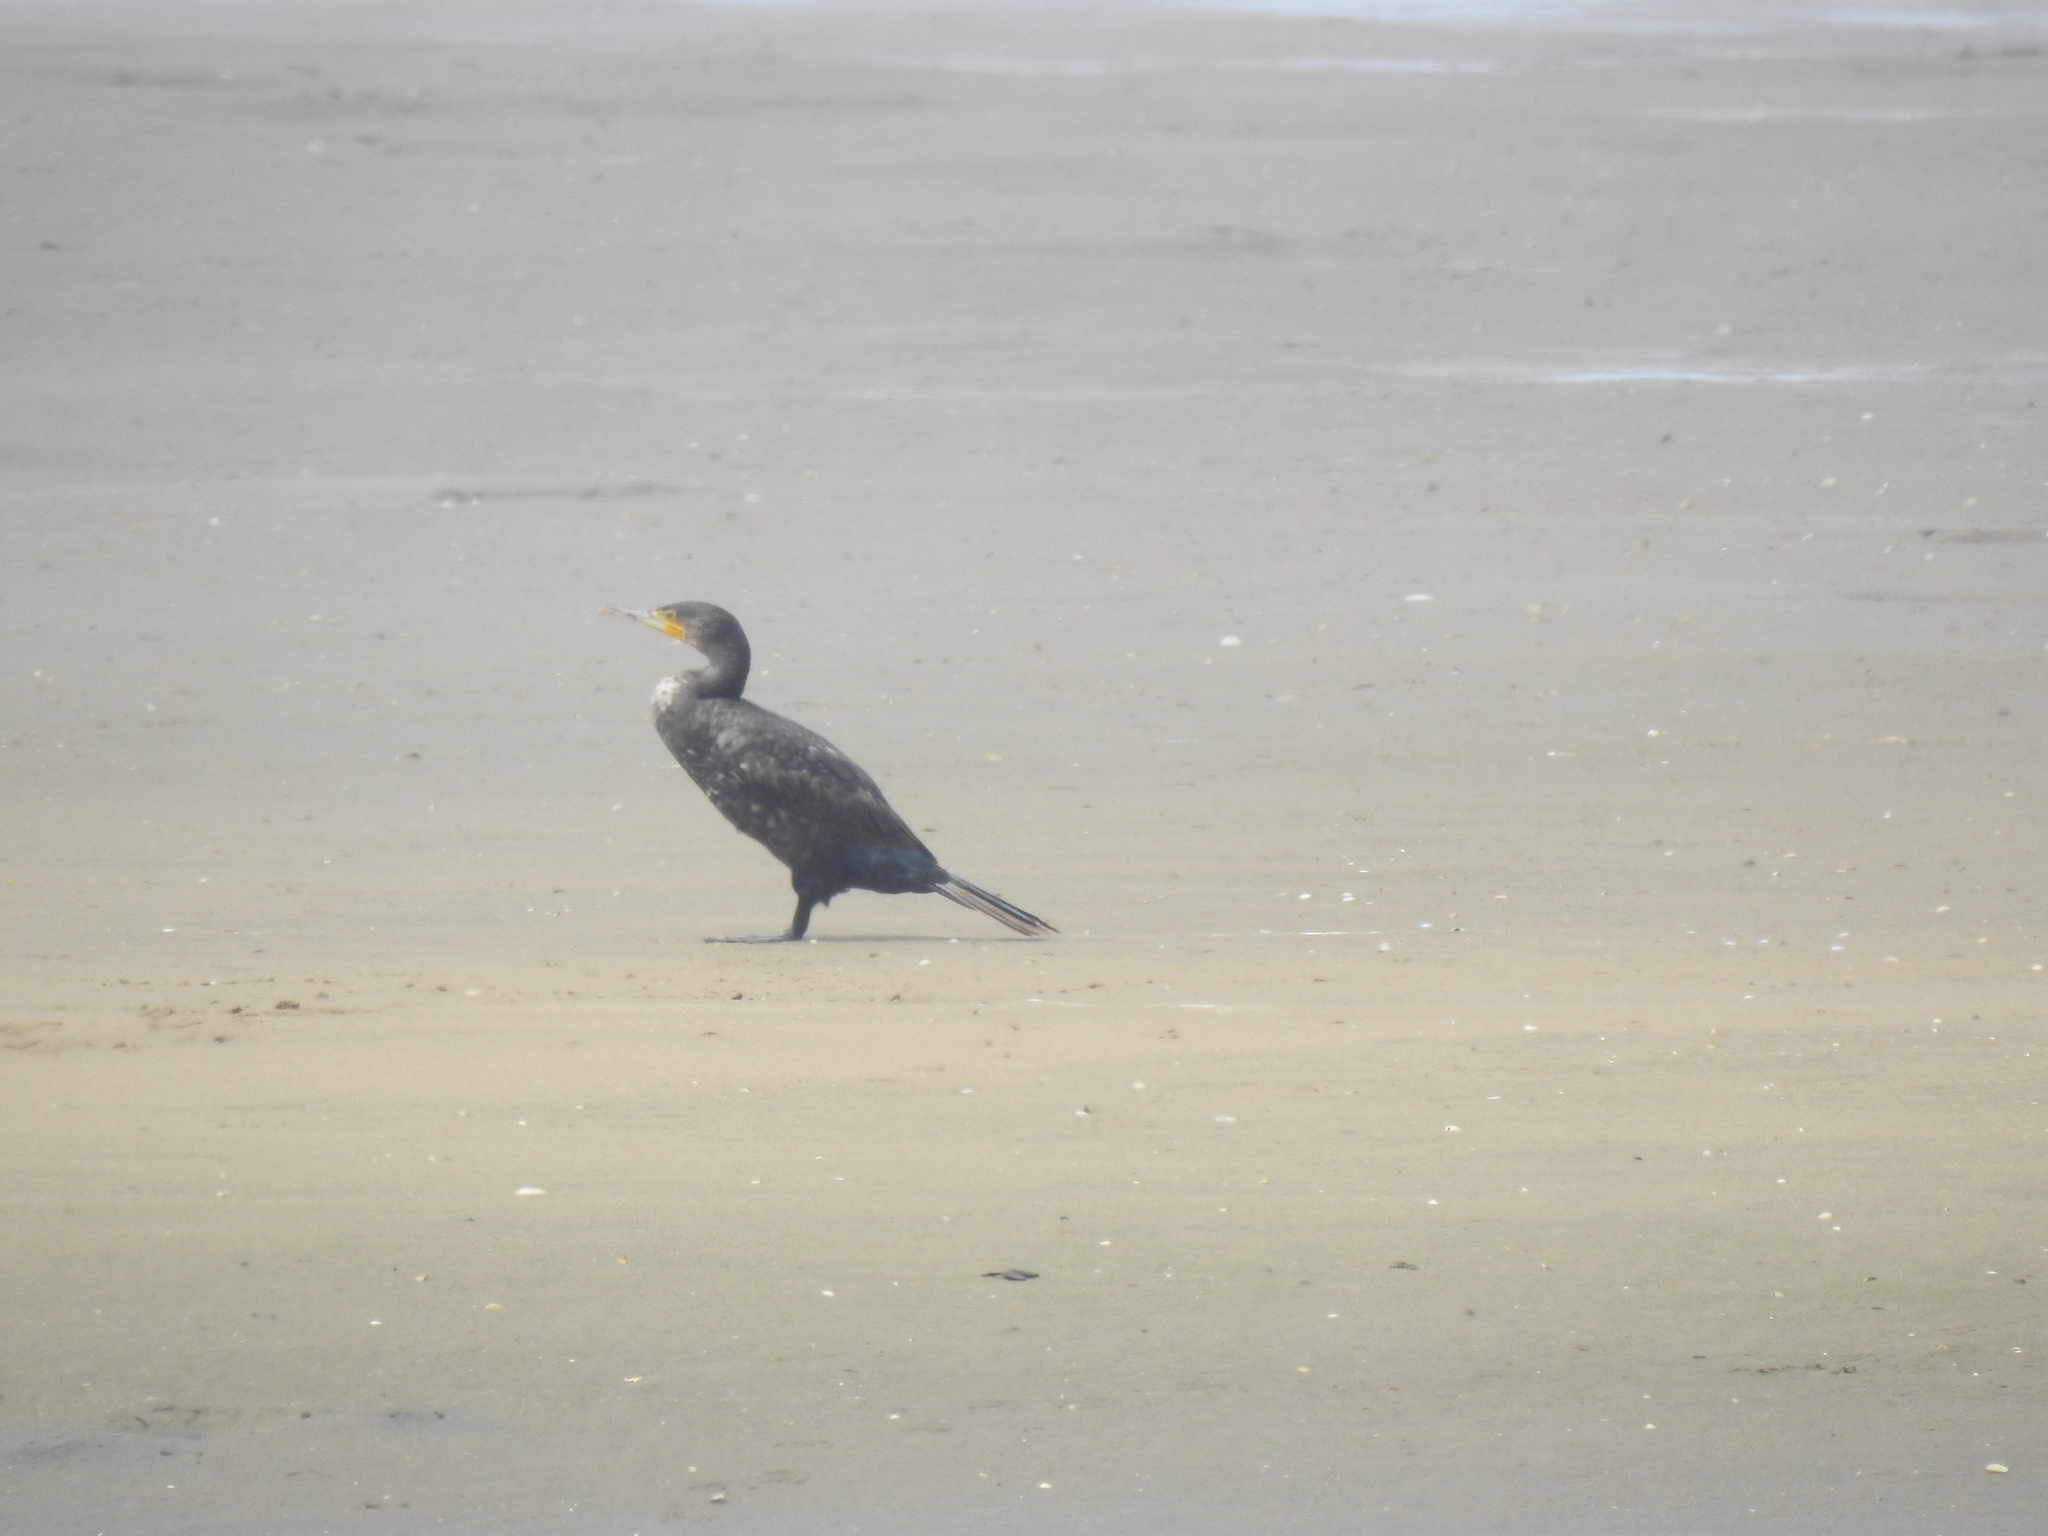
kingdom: Animalia
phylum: Chordata
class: Aves
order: Suliformes
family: Phalacrocoracidae
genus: Phalacrocorax
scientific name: Phalacrocorax carbo
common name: Great cormorant
